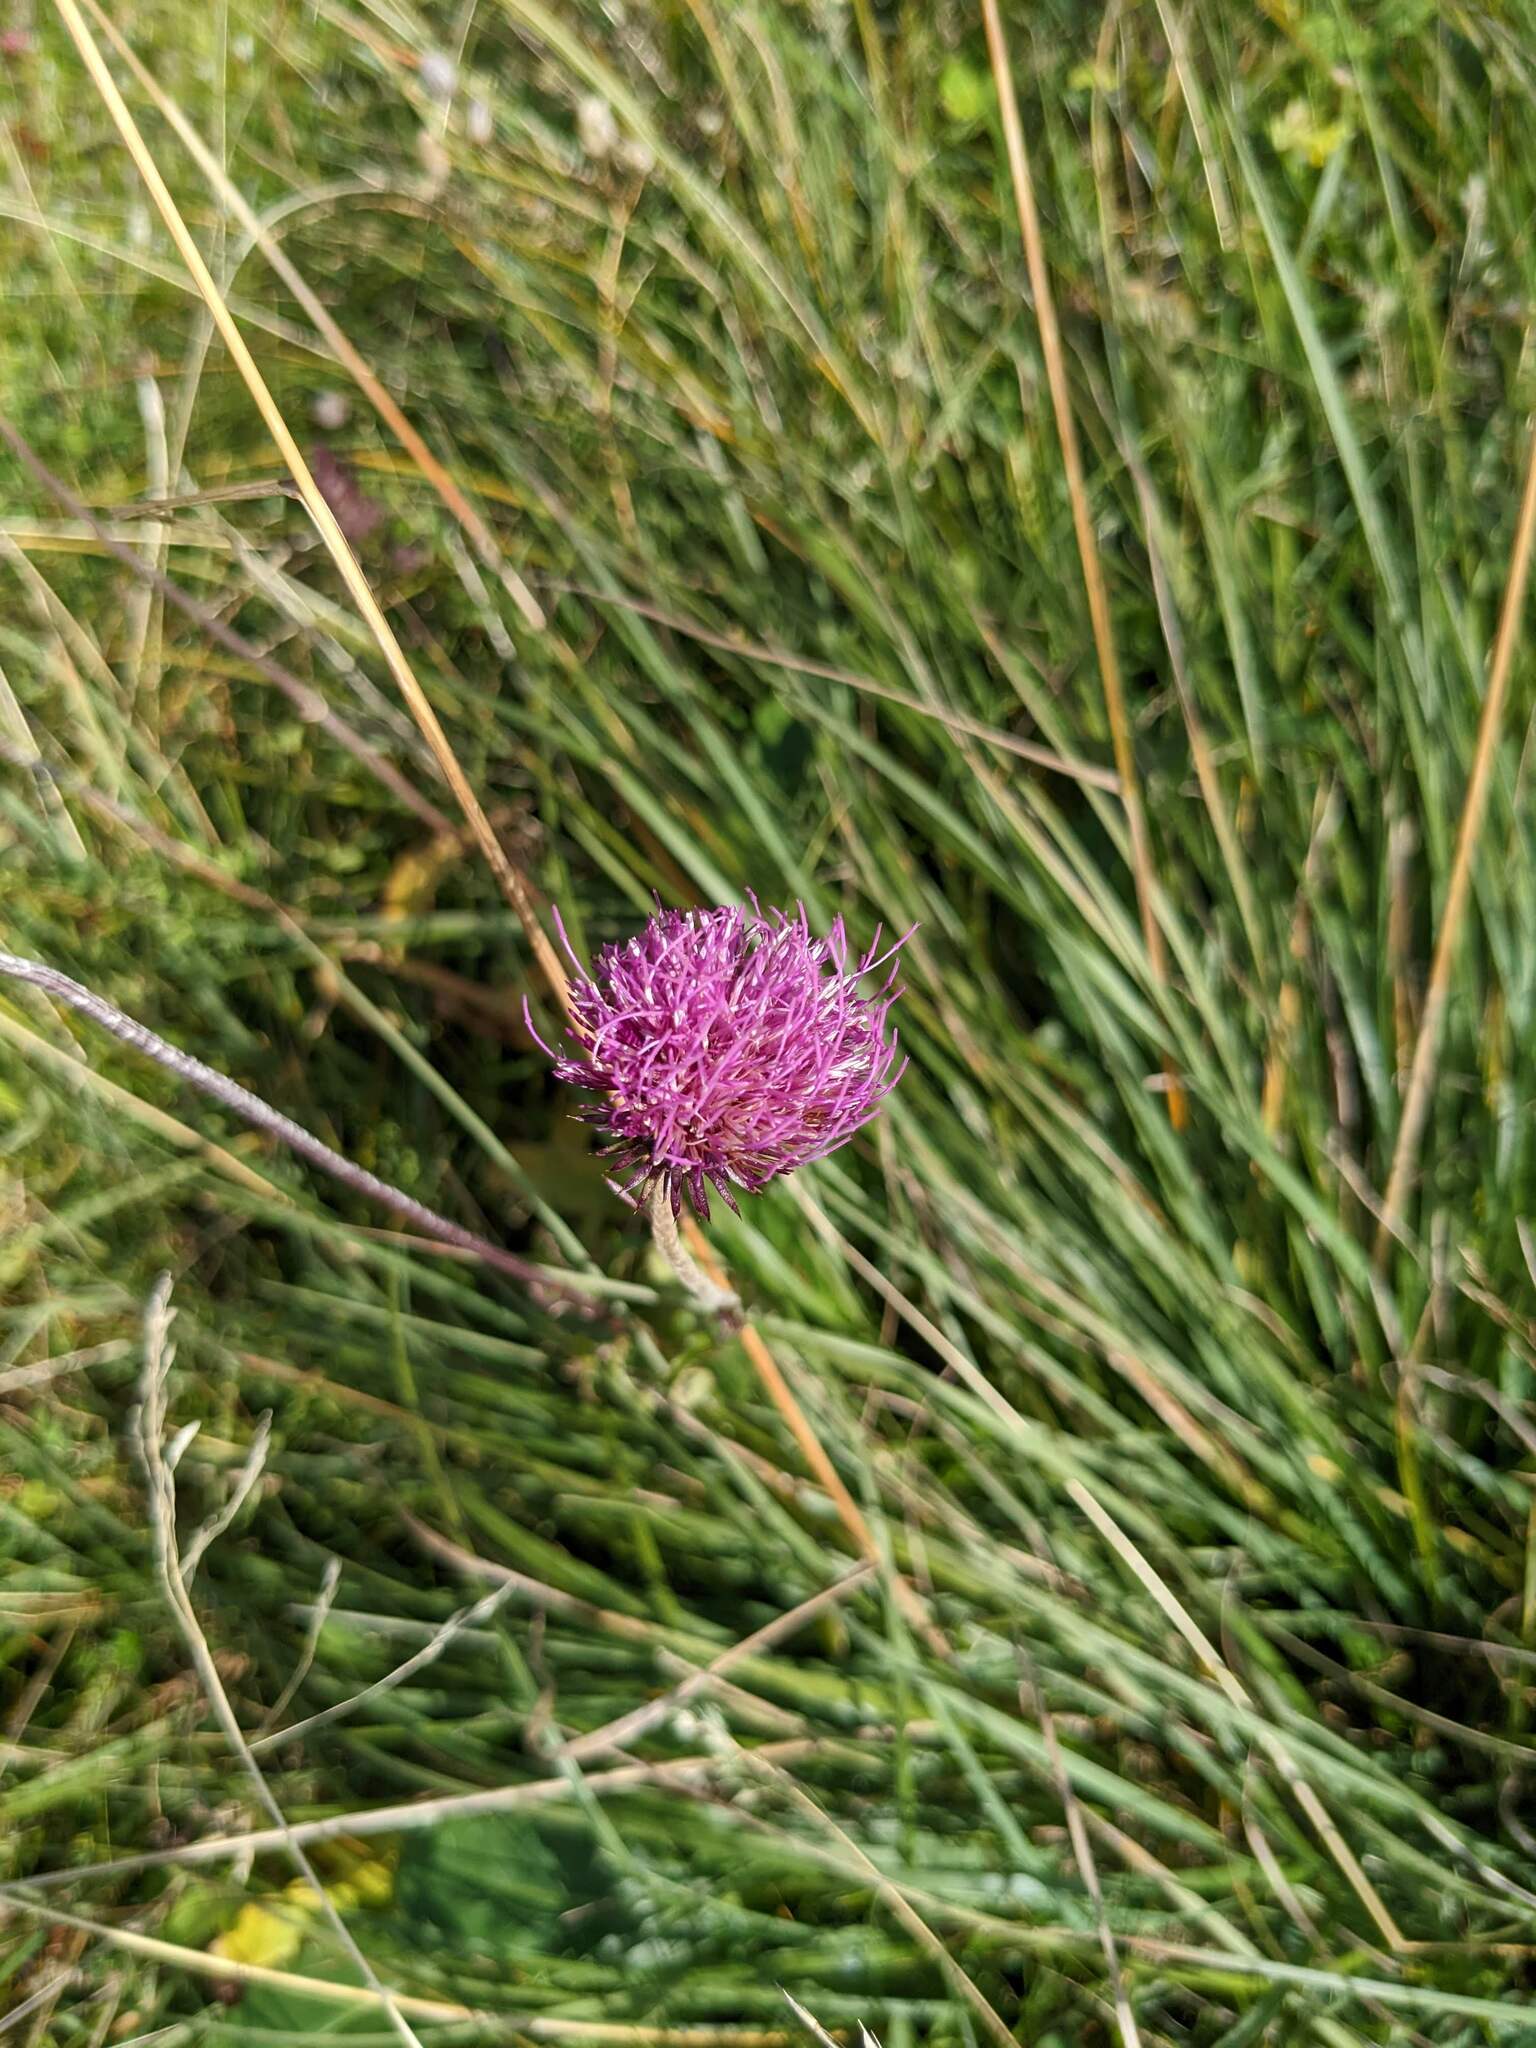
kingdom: Plantae
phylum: Tracheophyta
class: Magnoliopsida
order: Asterales
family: Asteraceae
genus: Carduus
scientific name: Carduus defloratus
